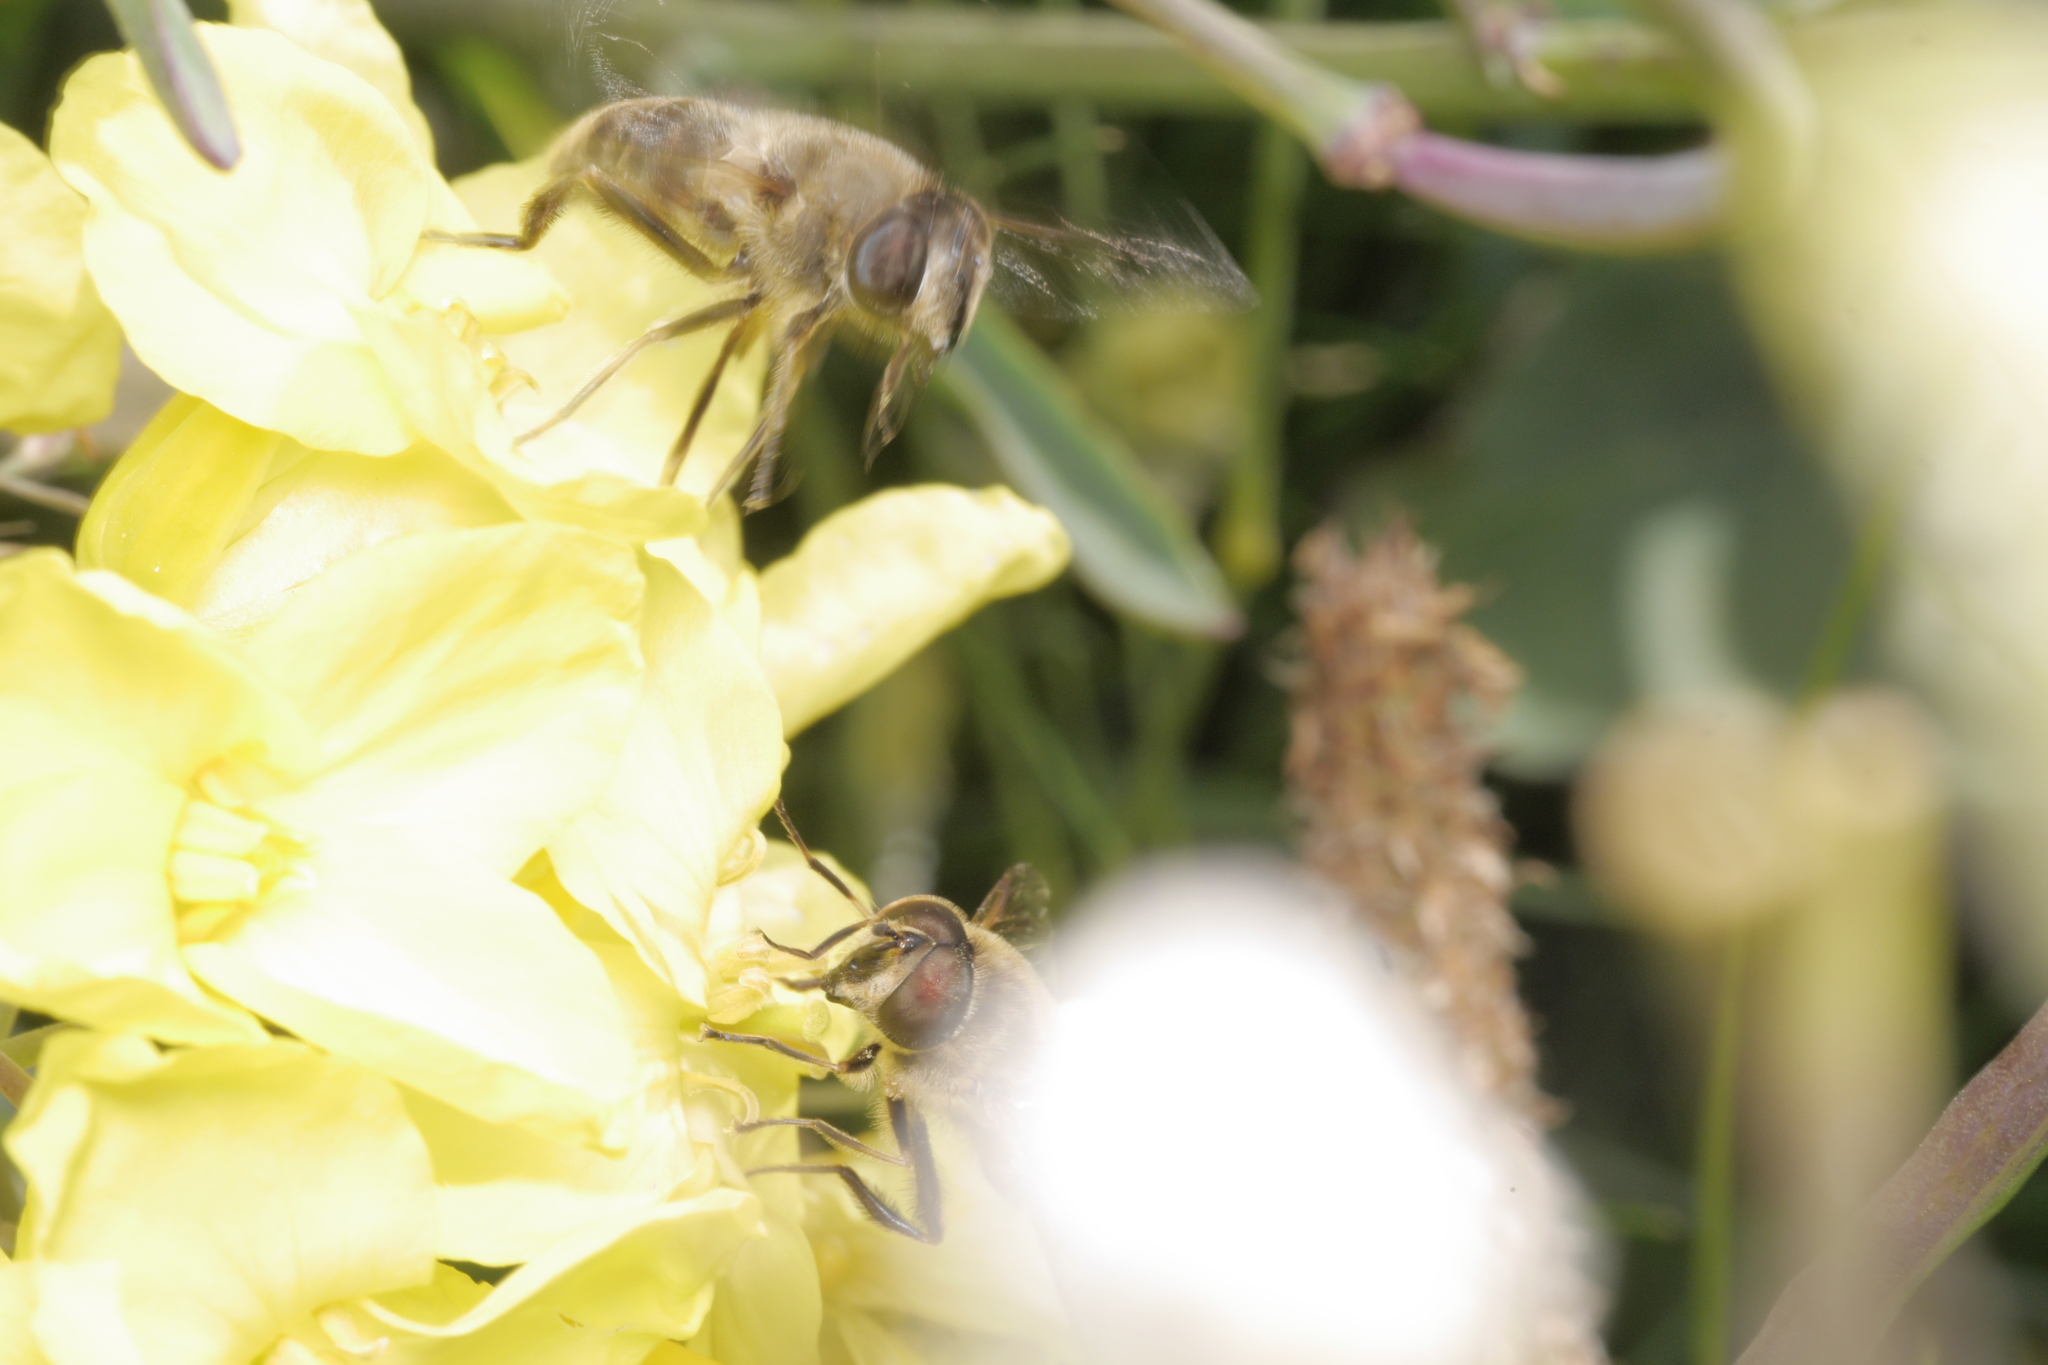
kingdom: Animalia
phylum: Arthropoda
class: Insecta
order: Diptera
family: Syrphidae
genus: Eristalis
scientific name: Eristalis tenax
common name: Drone fly
